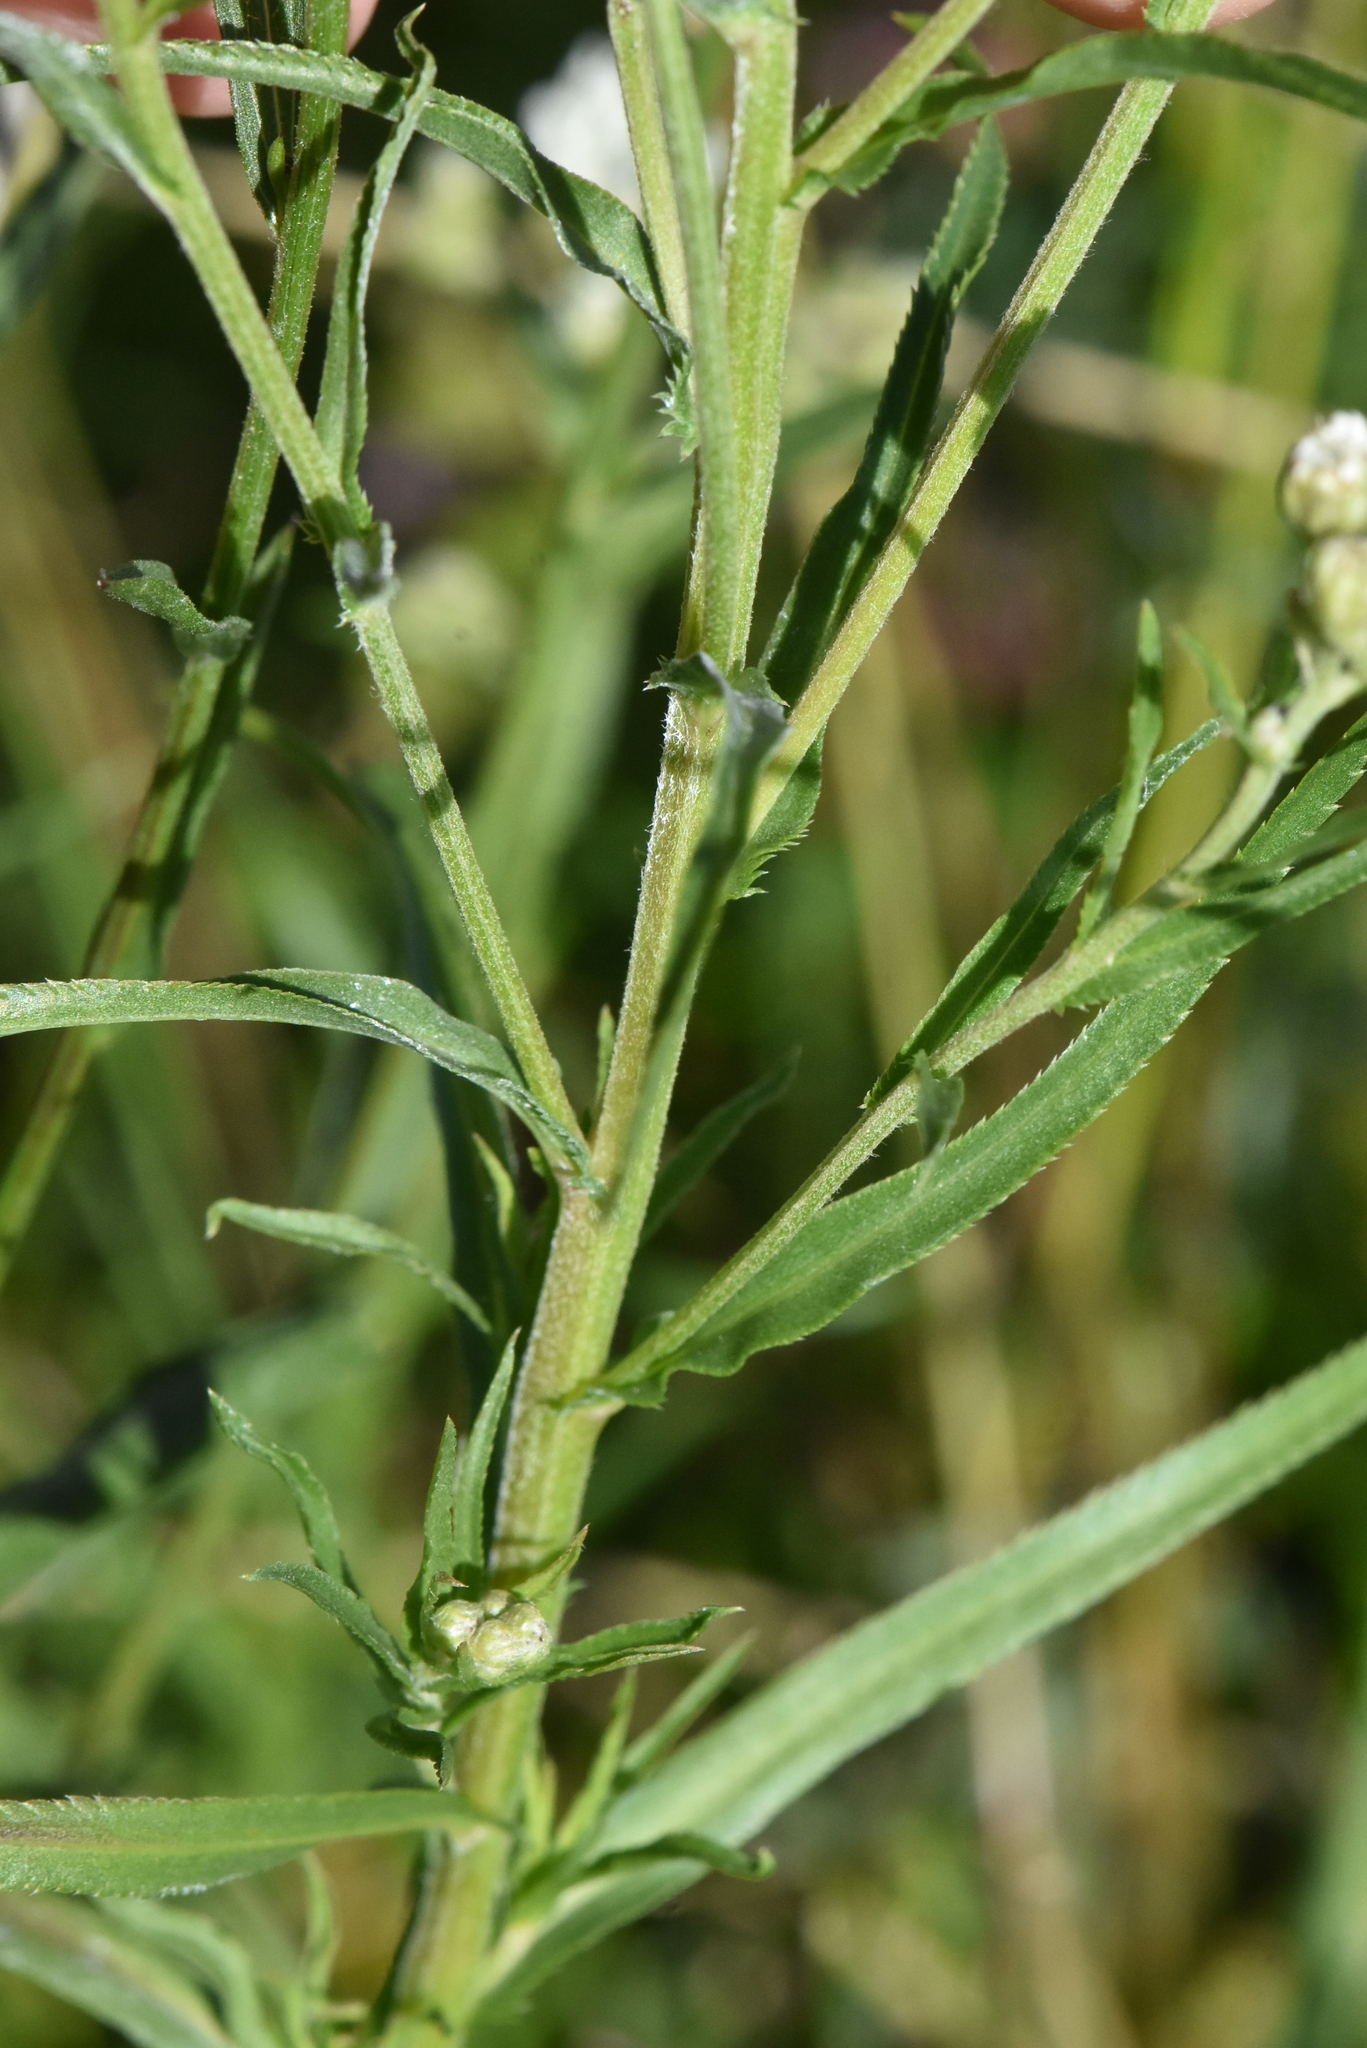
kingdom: Plantae
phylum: Tracheophyta
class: Magnoliopsida
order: Asterales
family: Asteraceae
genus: Achillea
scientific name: Achillea ptarmica
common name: Sneezeweed
